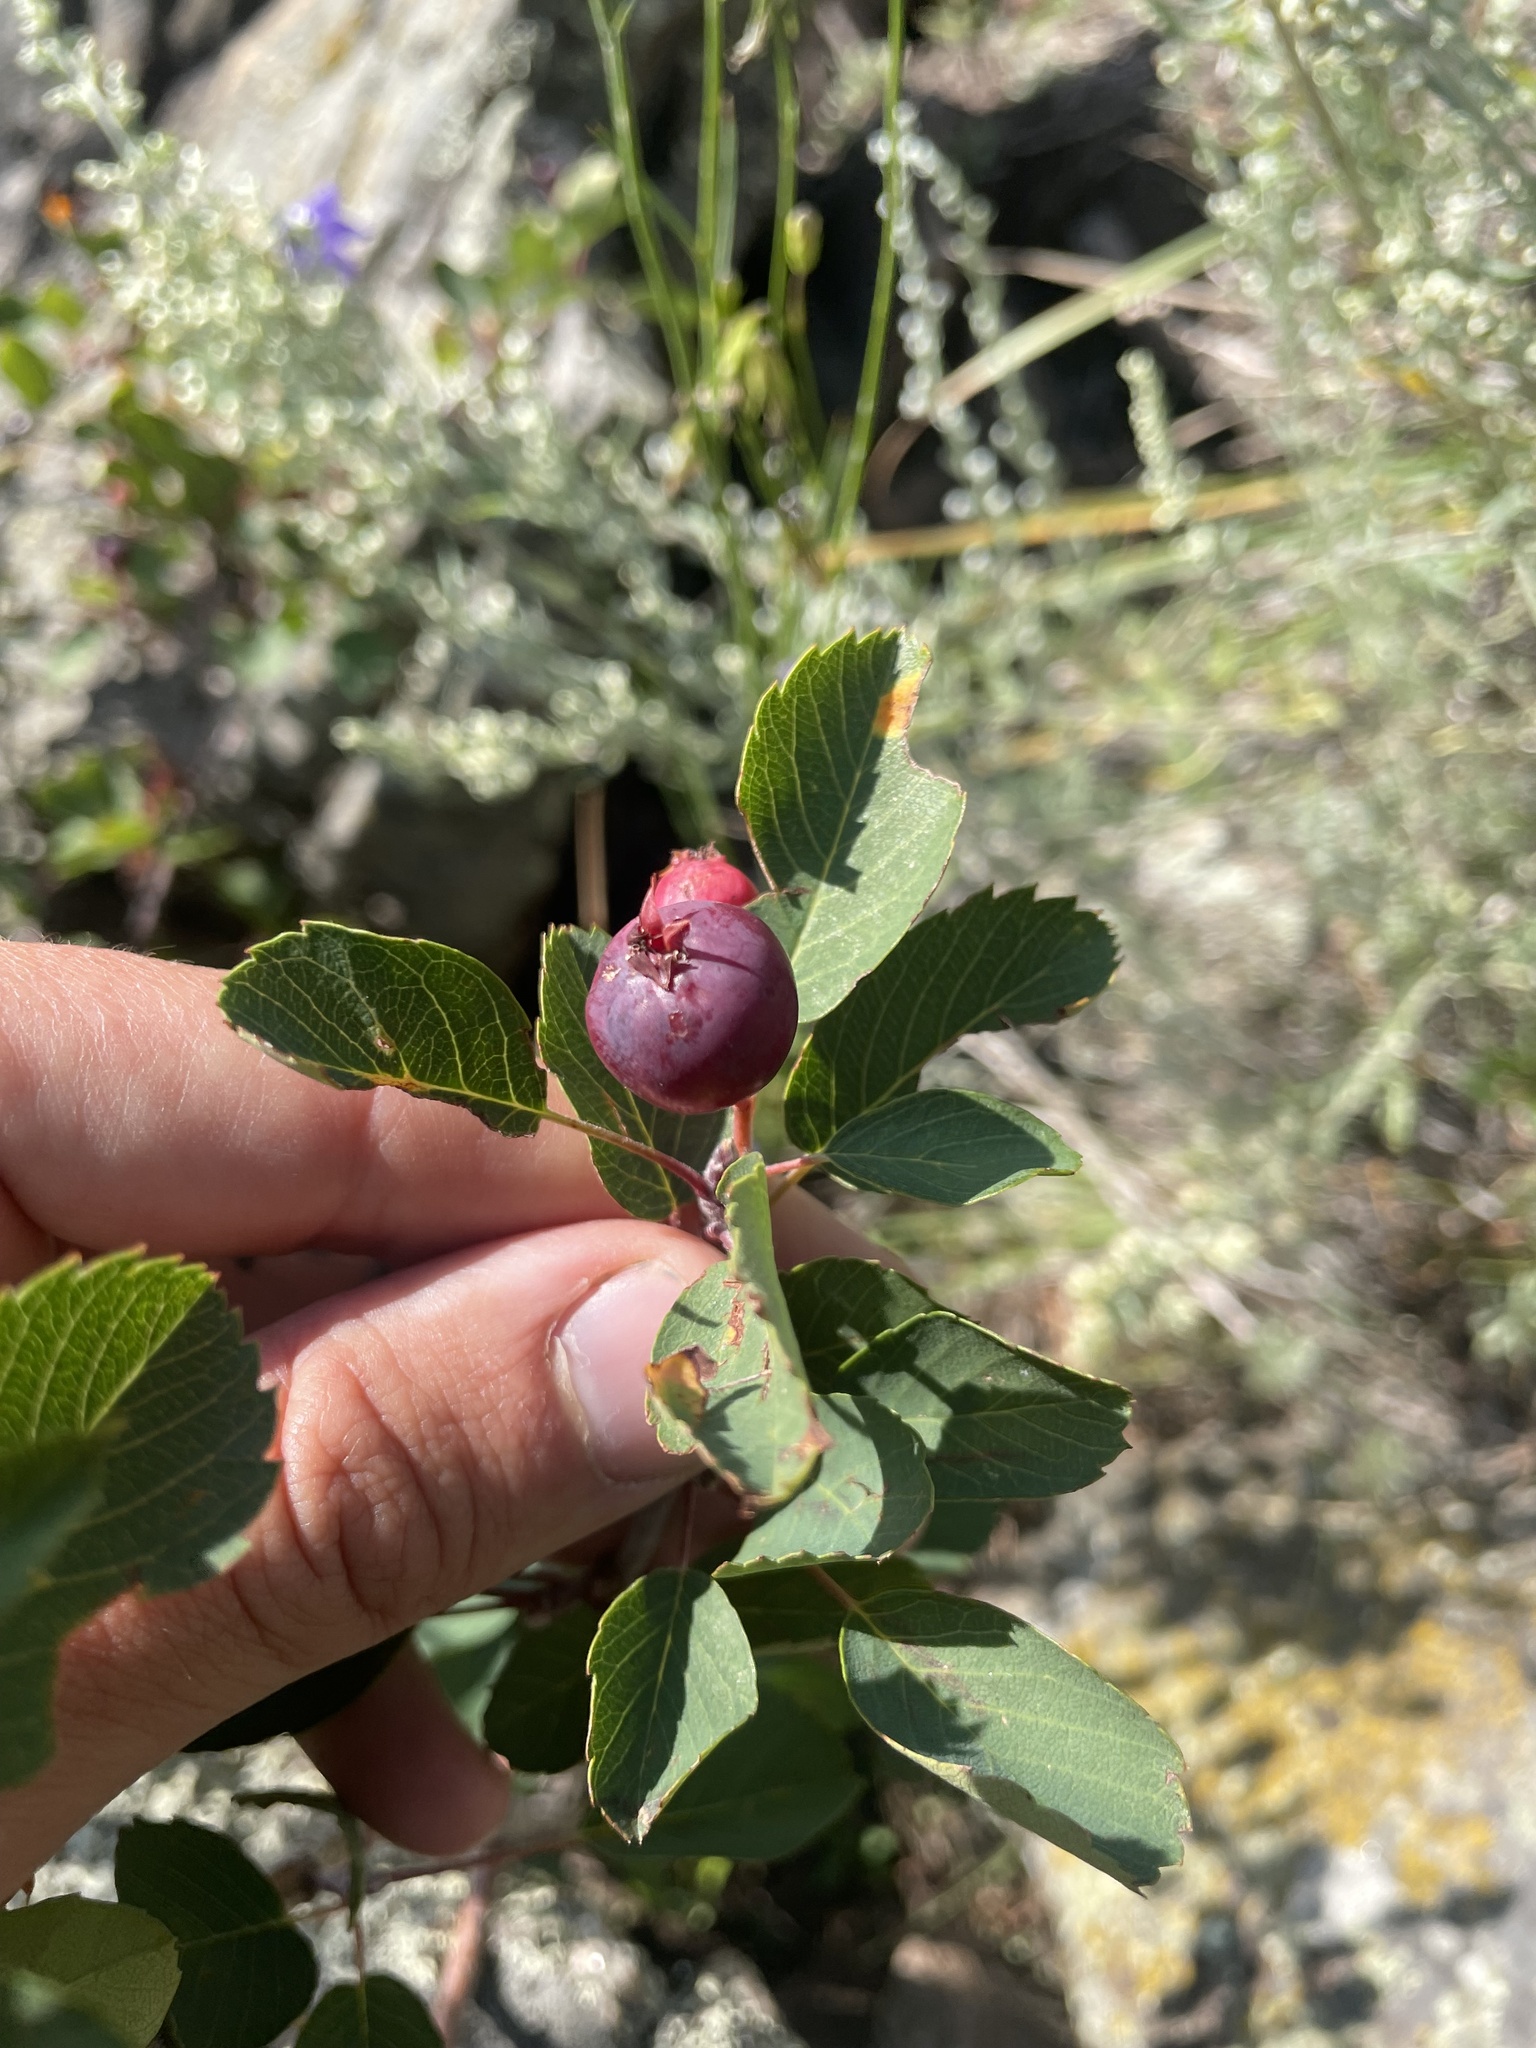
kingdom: Plantae
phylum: Tracheophyta
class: Magnoliopsida
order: Rosales
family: Rosaceae
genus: Amelanchier
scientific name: Amelanchier alnifolia
